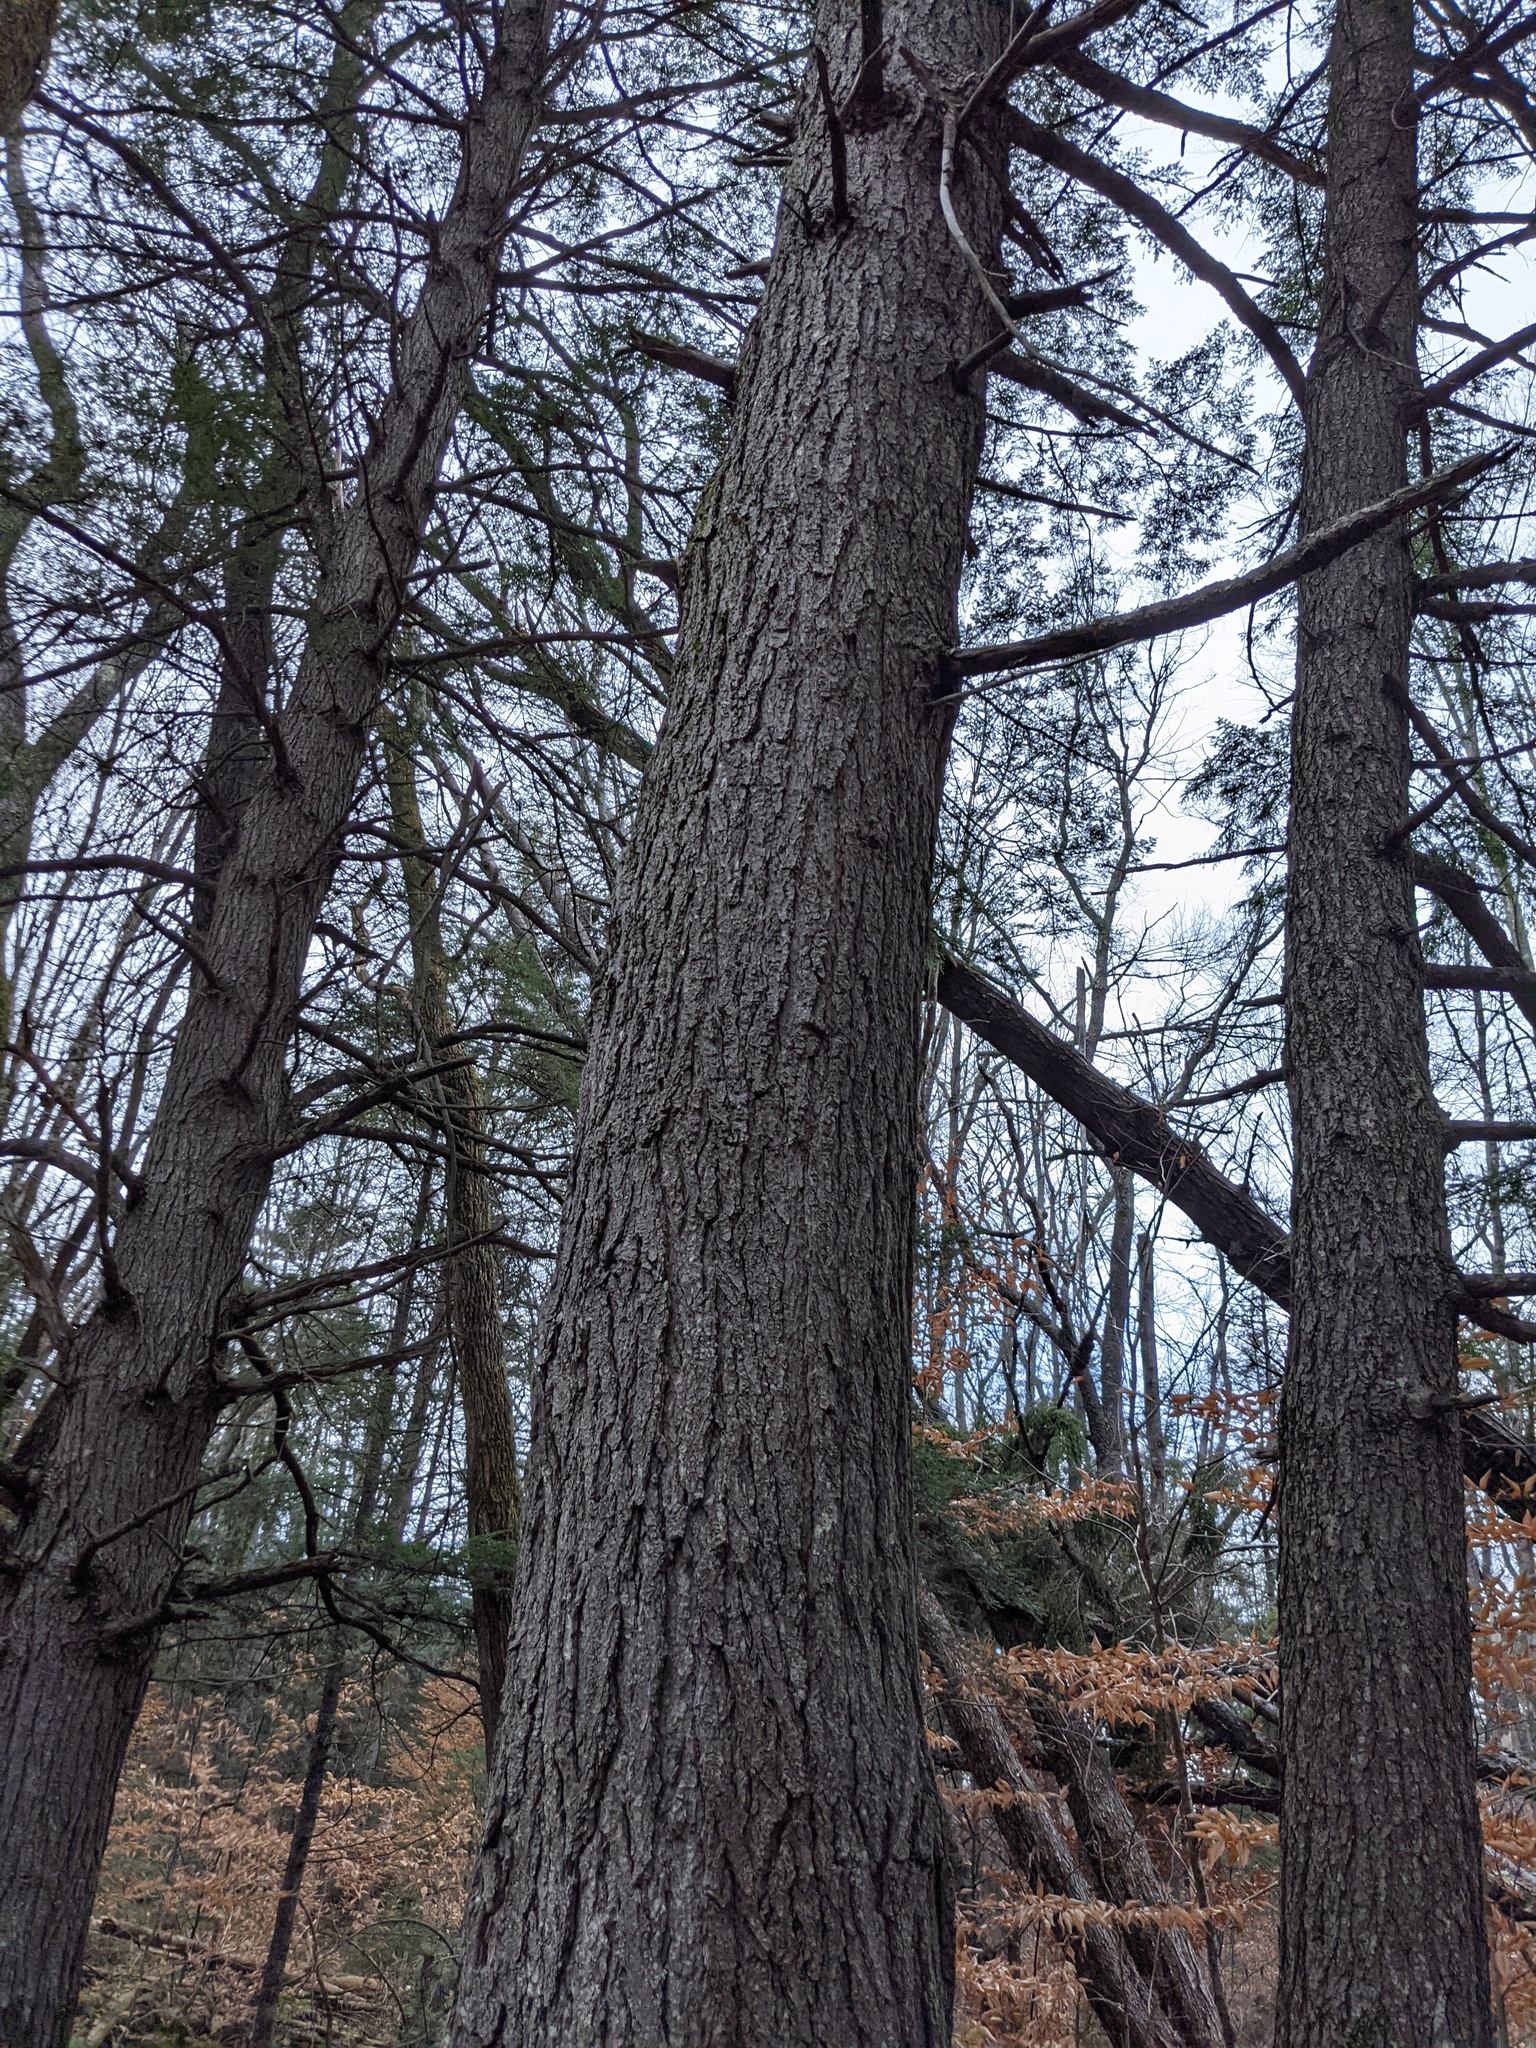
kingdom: Plantae
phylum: Tracheophyta
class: Pinopsida
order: Pinales
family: Pinaceae
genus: Tsuga
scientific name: Tsuga canadensis
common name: Eastern hemlock
